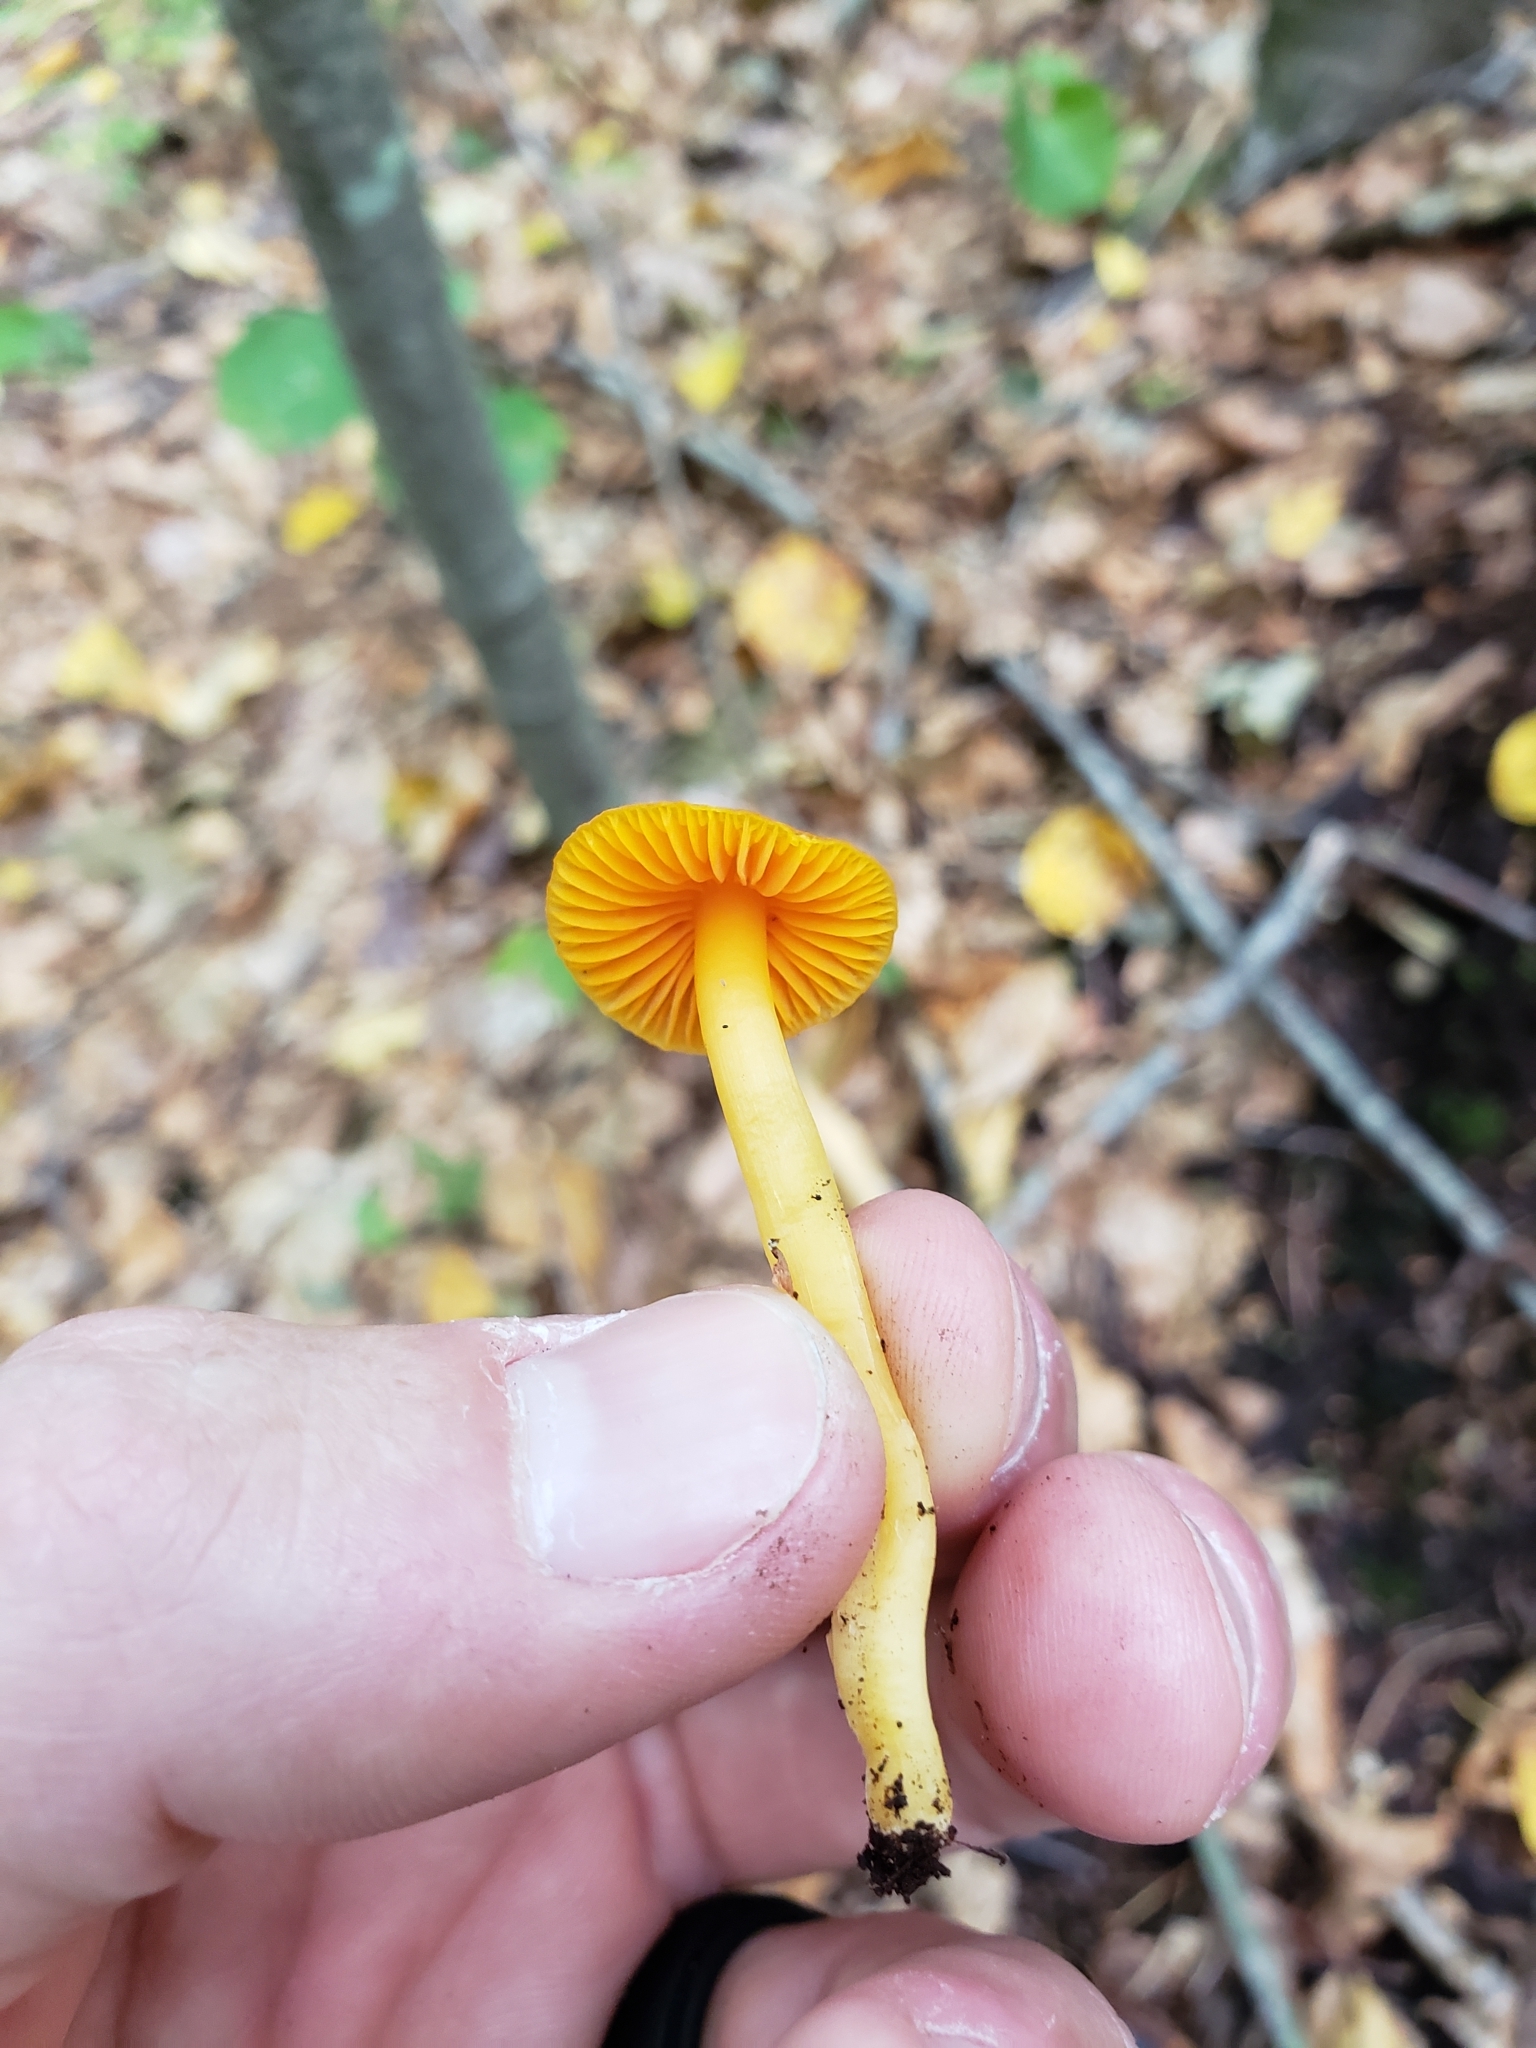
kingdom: Fungi
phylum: Basidiomycota
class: Agaricomycetes
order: Agaricales
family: Hygrophoraceae
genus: Humidicutis
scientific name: Humidicutis marginata
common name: Orange gilled waxcap
